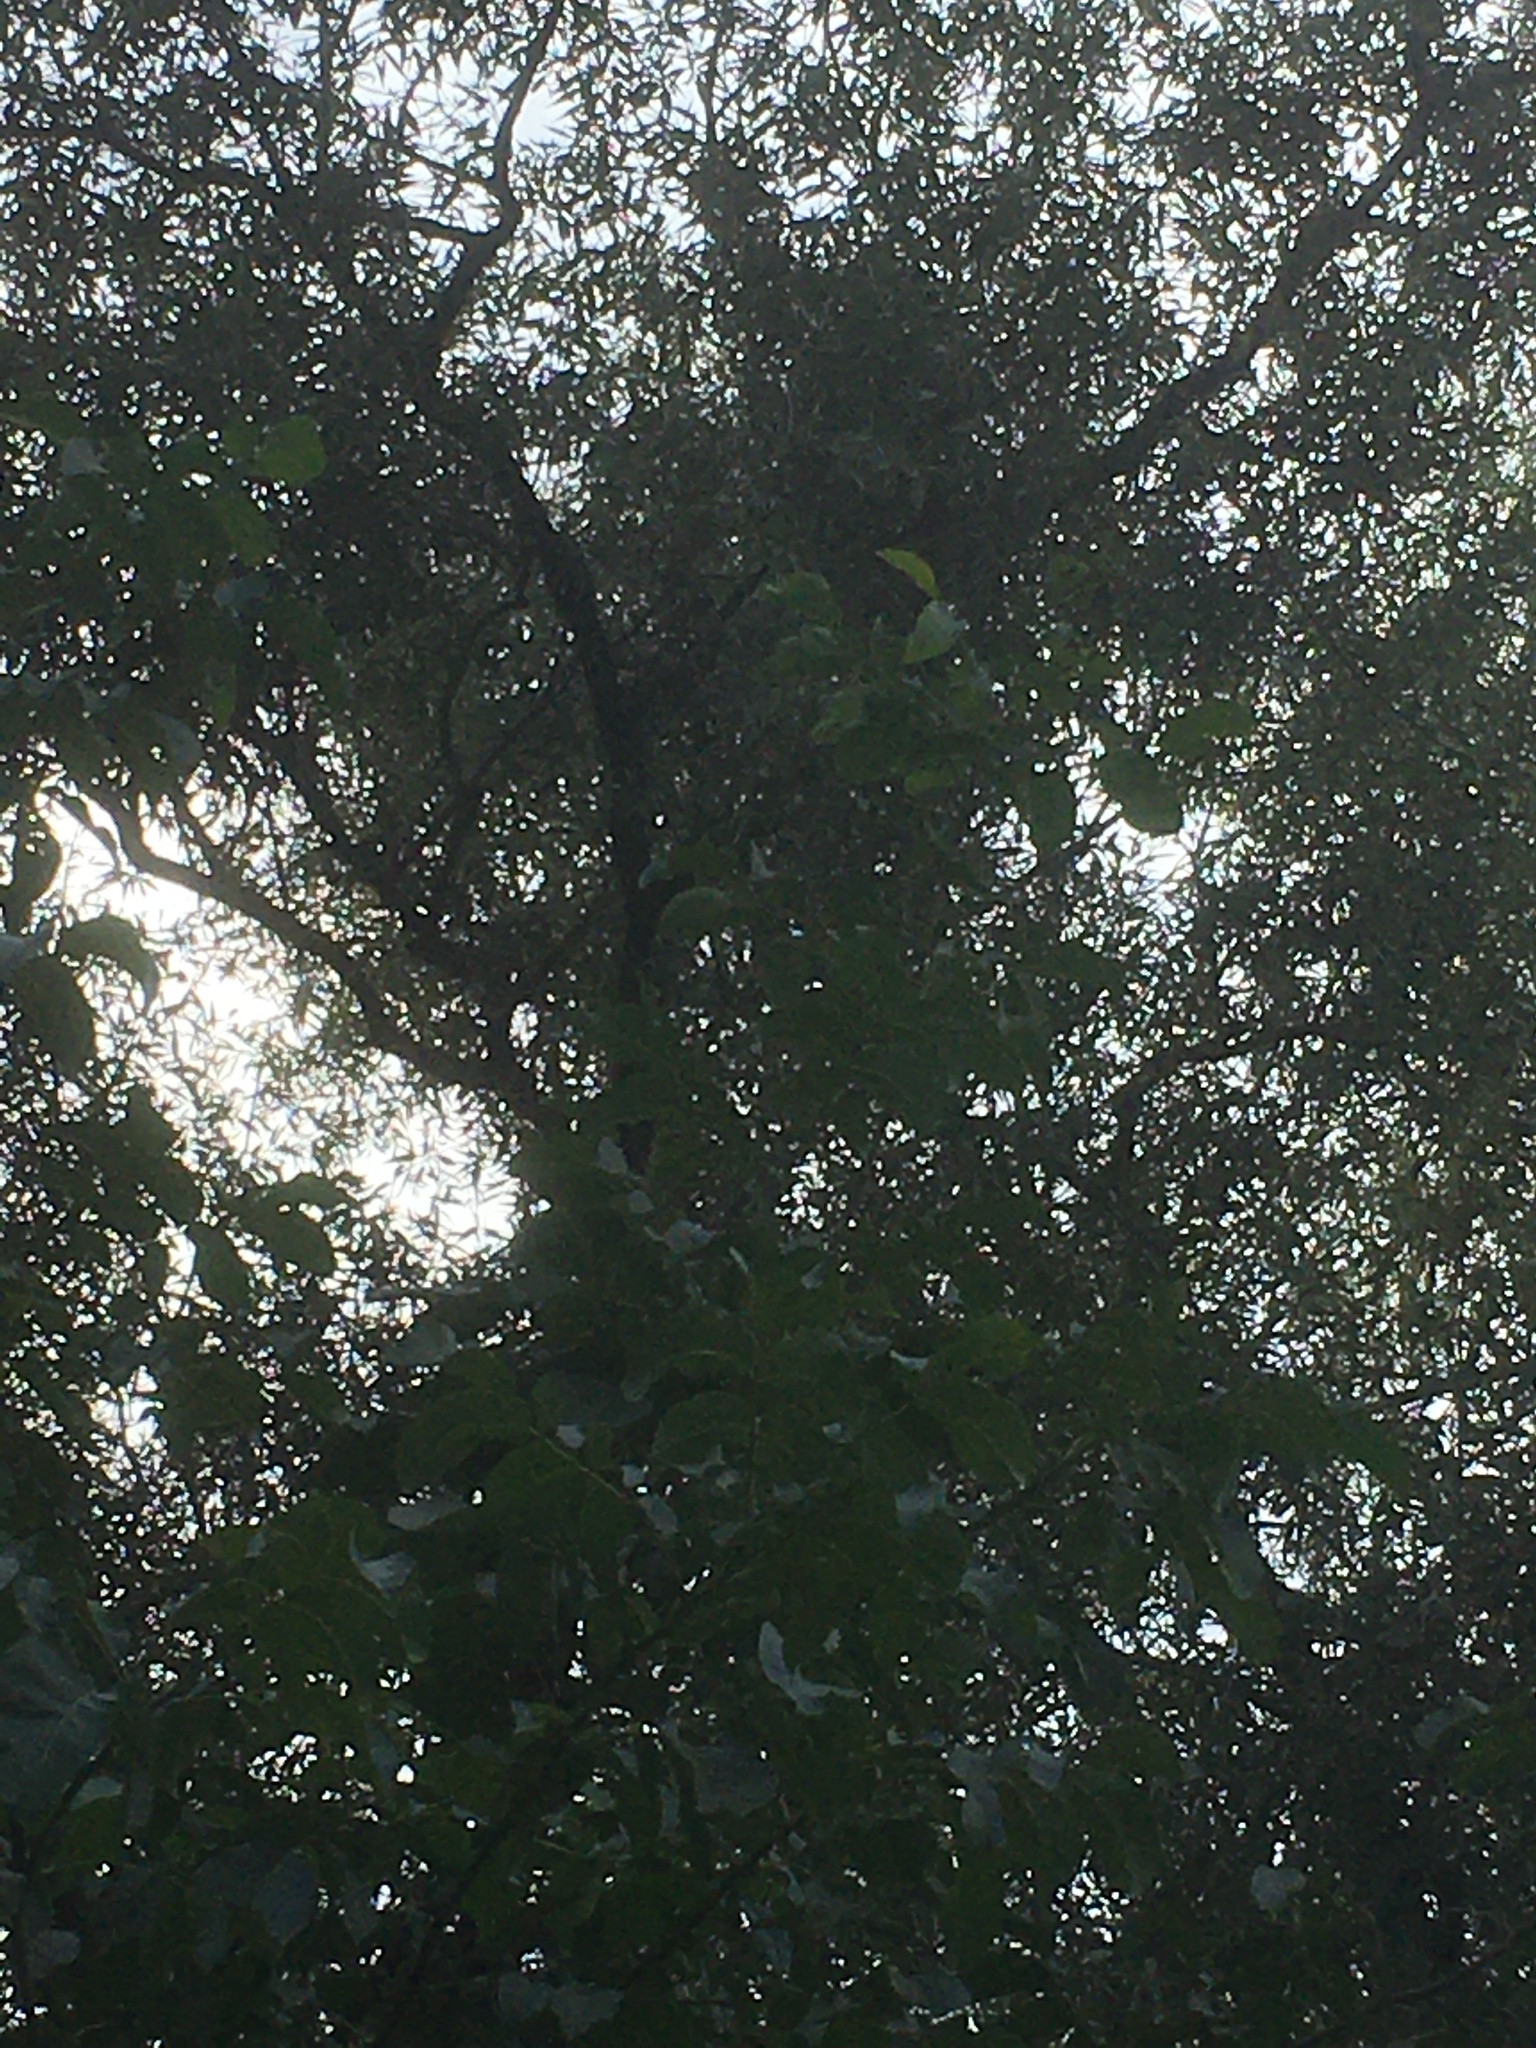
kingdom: Animalia
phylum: Arthropoda
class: Insecta
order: Hymenoptera
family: Vespidae
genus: Vespa
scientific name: Vespa velutina
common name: Asian hornet
